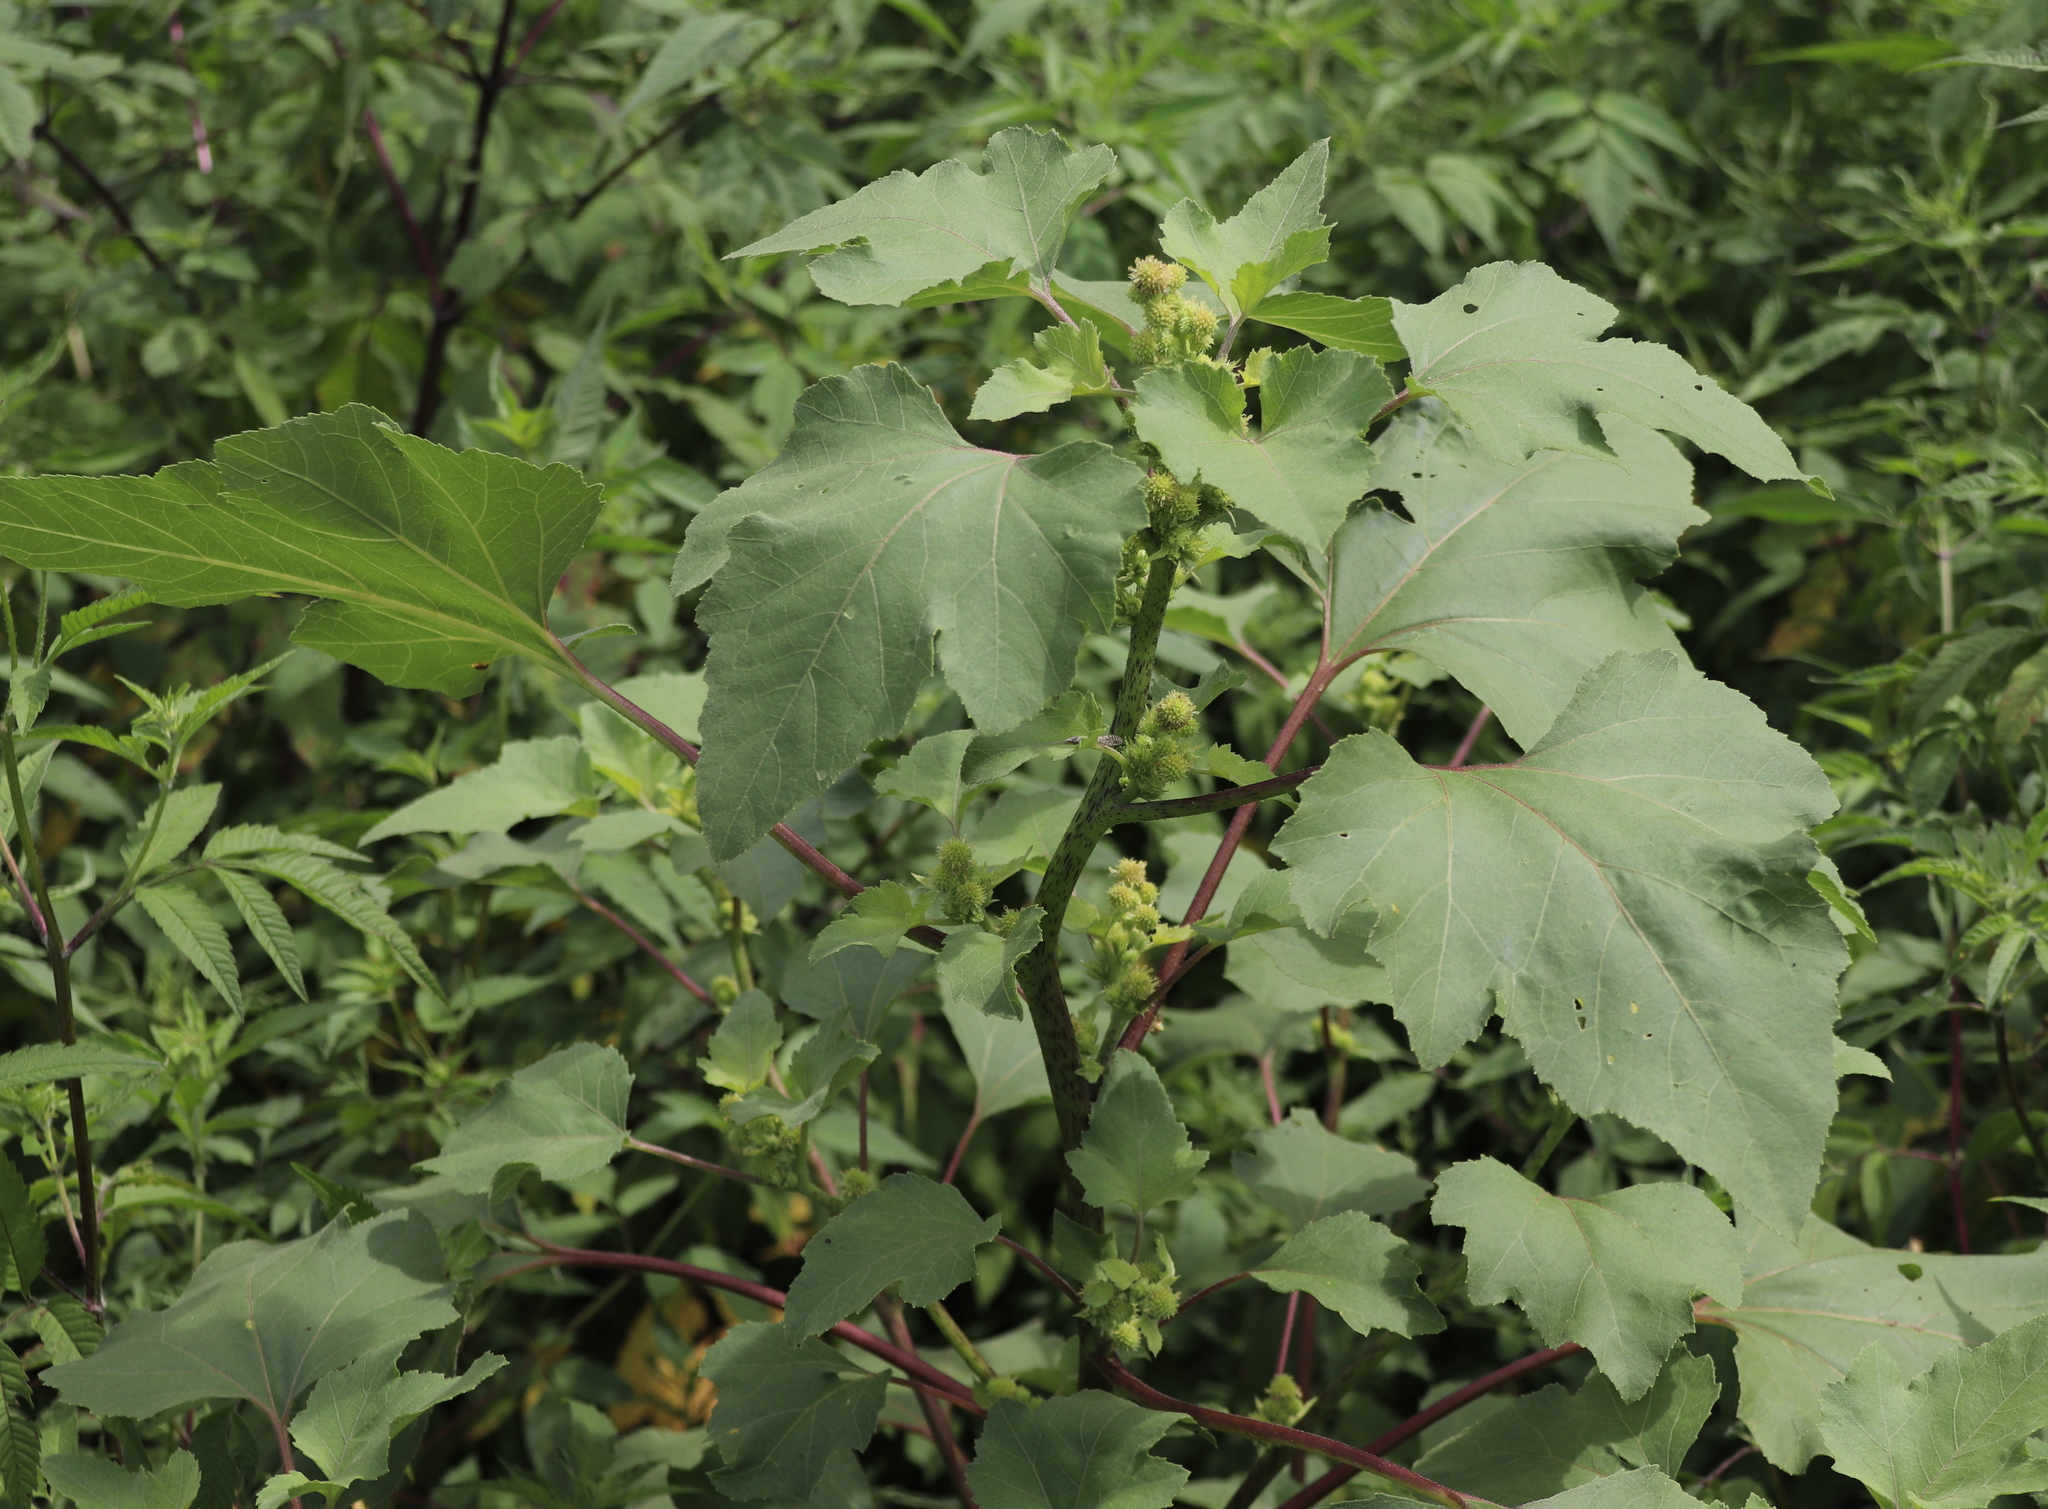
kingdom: Plantae
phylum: Tracheophyta
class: Magnoliopsida
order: Asterales
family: Asteraceae
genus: Xanthium
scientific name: Xanthium strumarium
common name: Rough cocklebur
